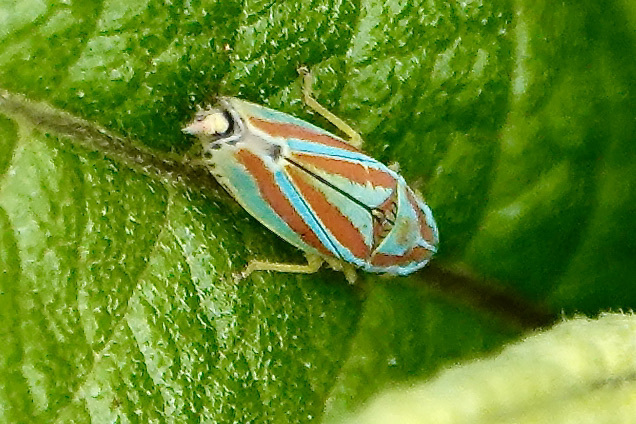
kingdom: Animalia
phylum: Arthropoda
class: Insecta
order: Hemiptera
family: Cicadellidae
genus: Graphocephala
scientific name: Graphocephala versuta
